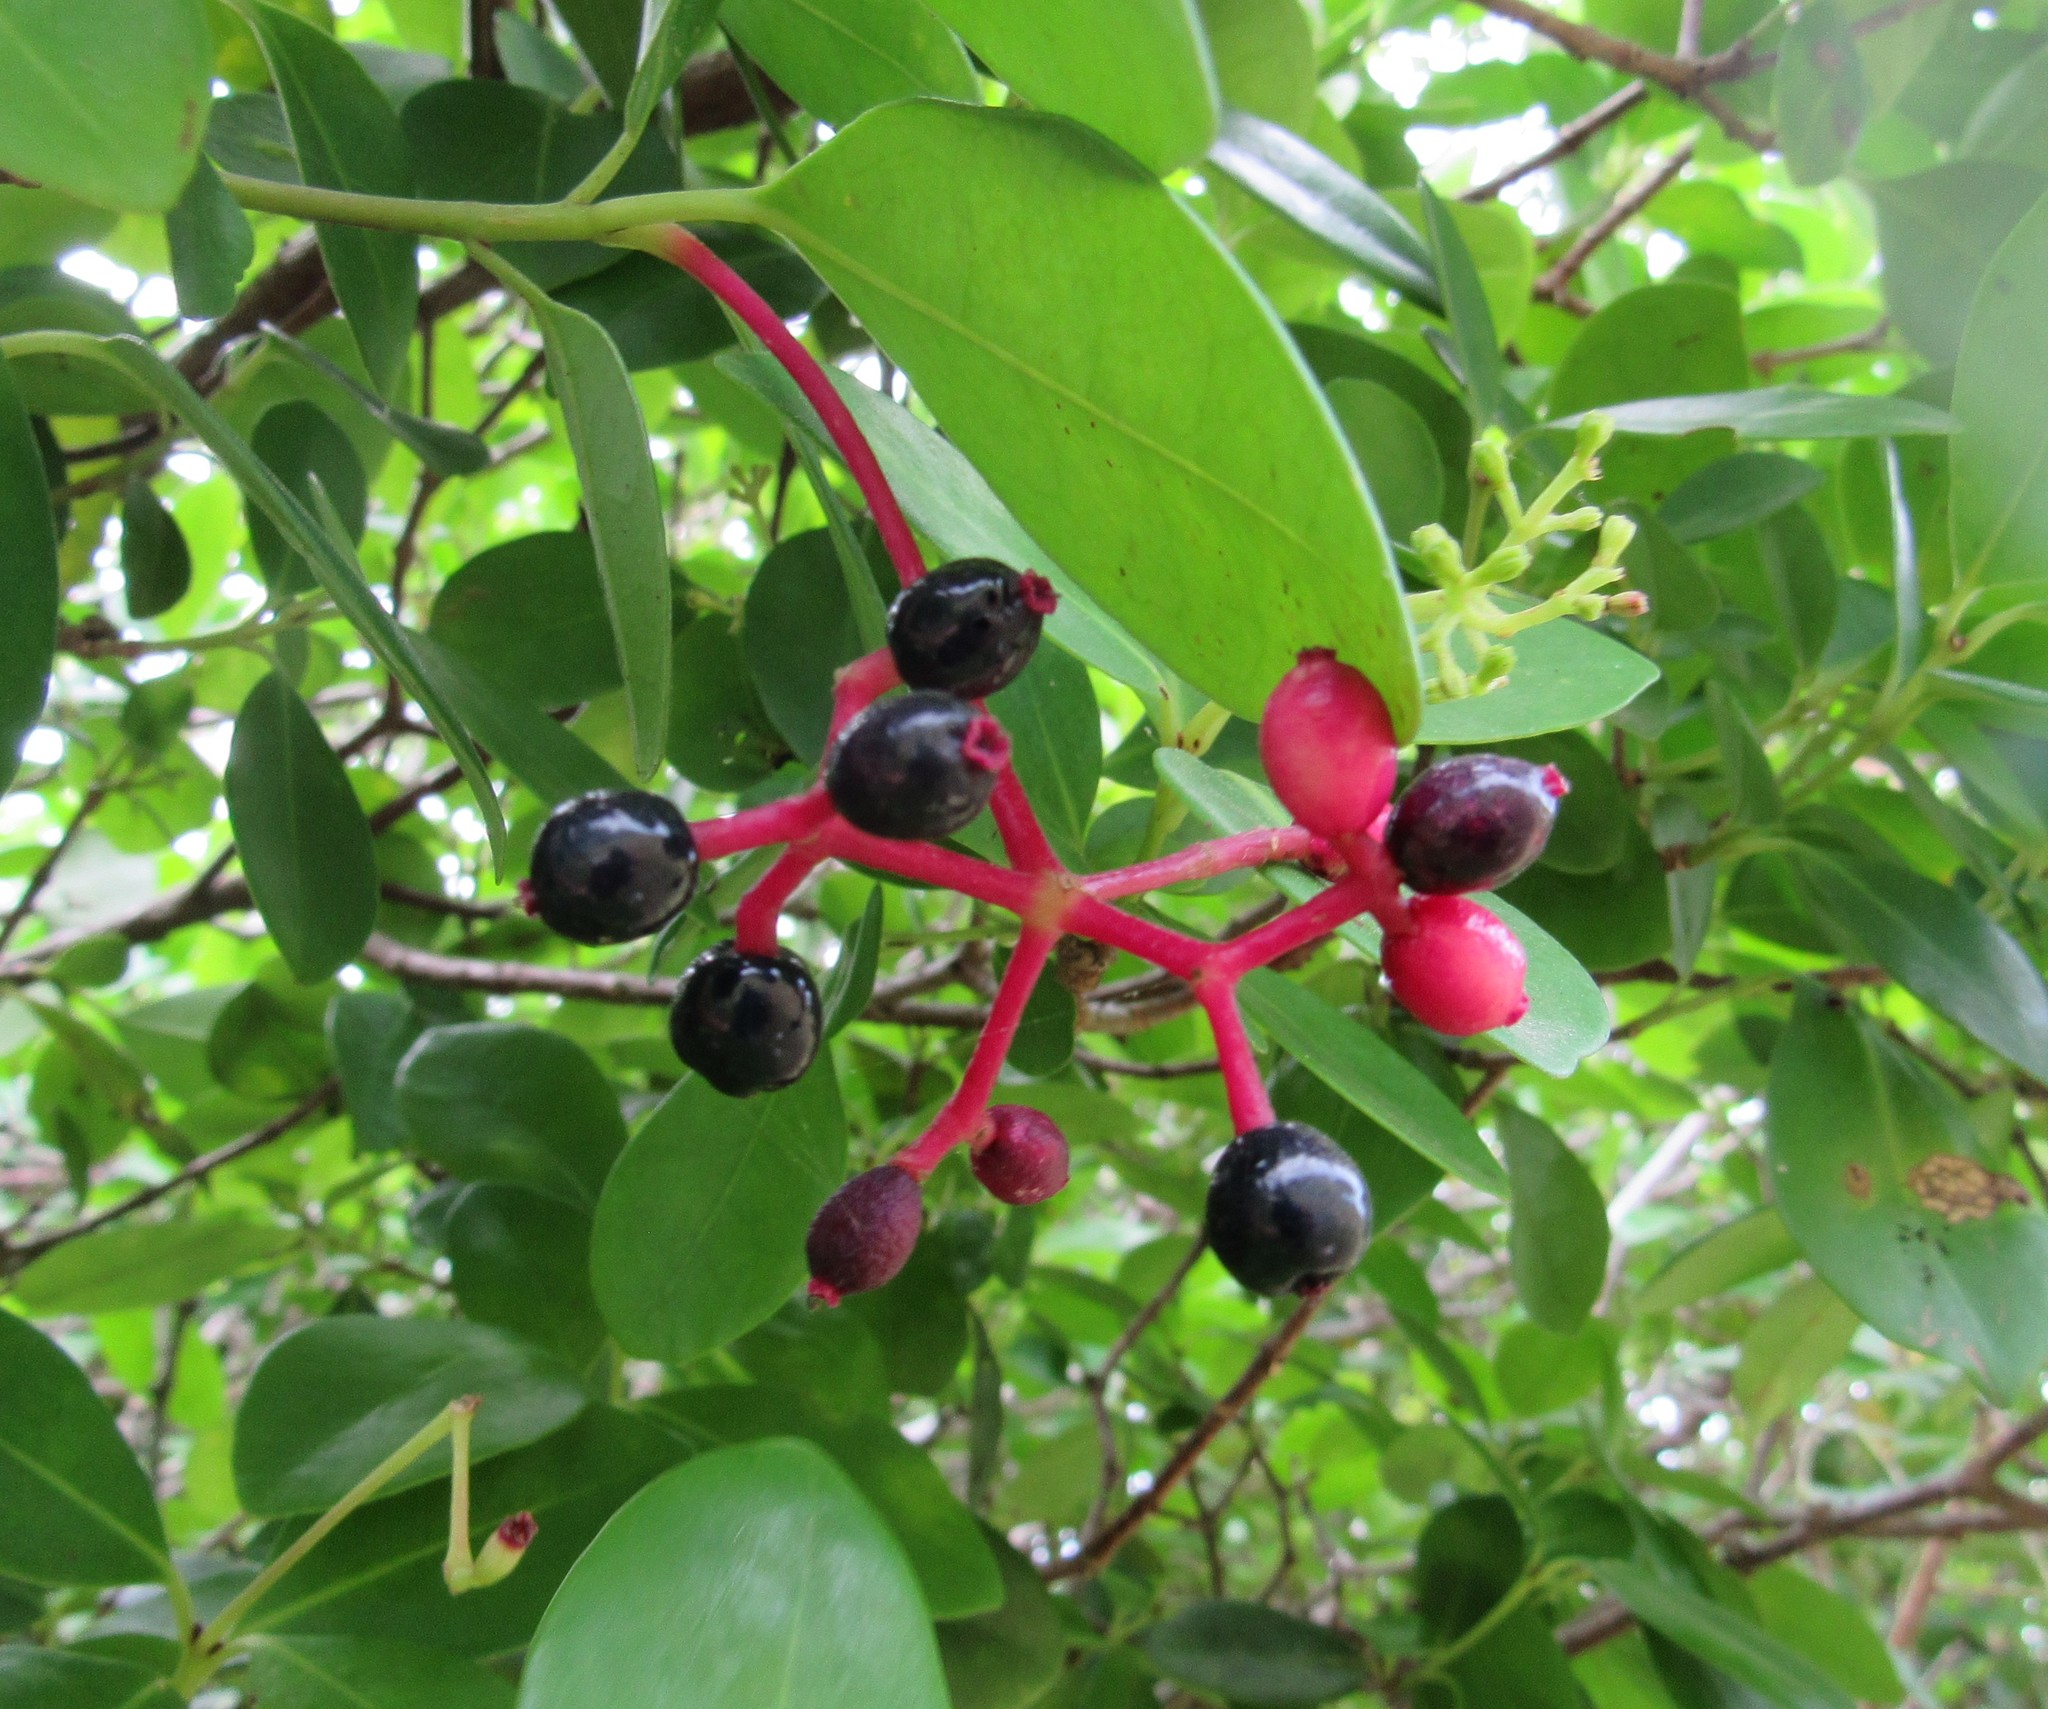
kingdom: Plantae
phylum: Tracheophyta
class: Magnoliopsida
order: Caryophyllales
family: Nyctaginaceae
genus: Guapira
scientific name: Guapira opposita
